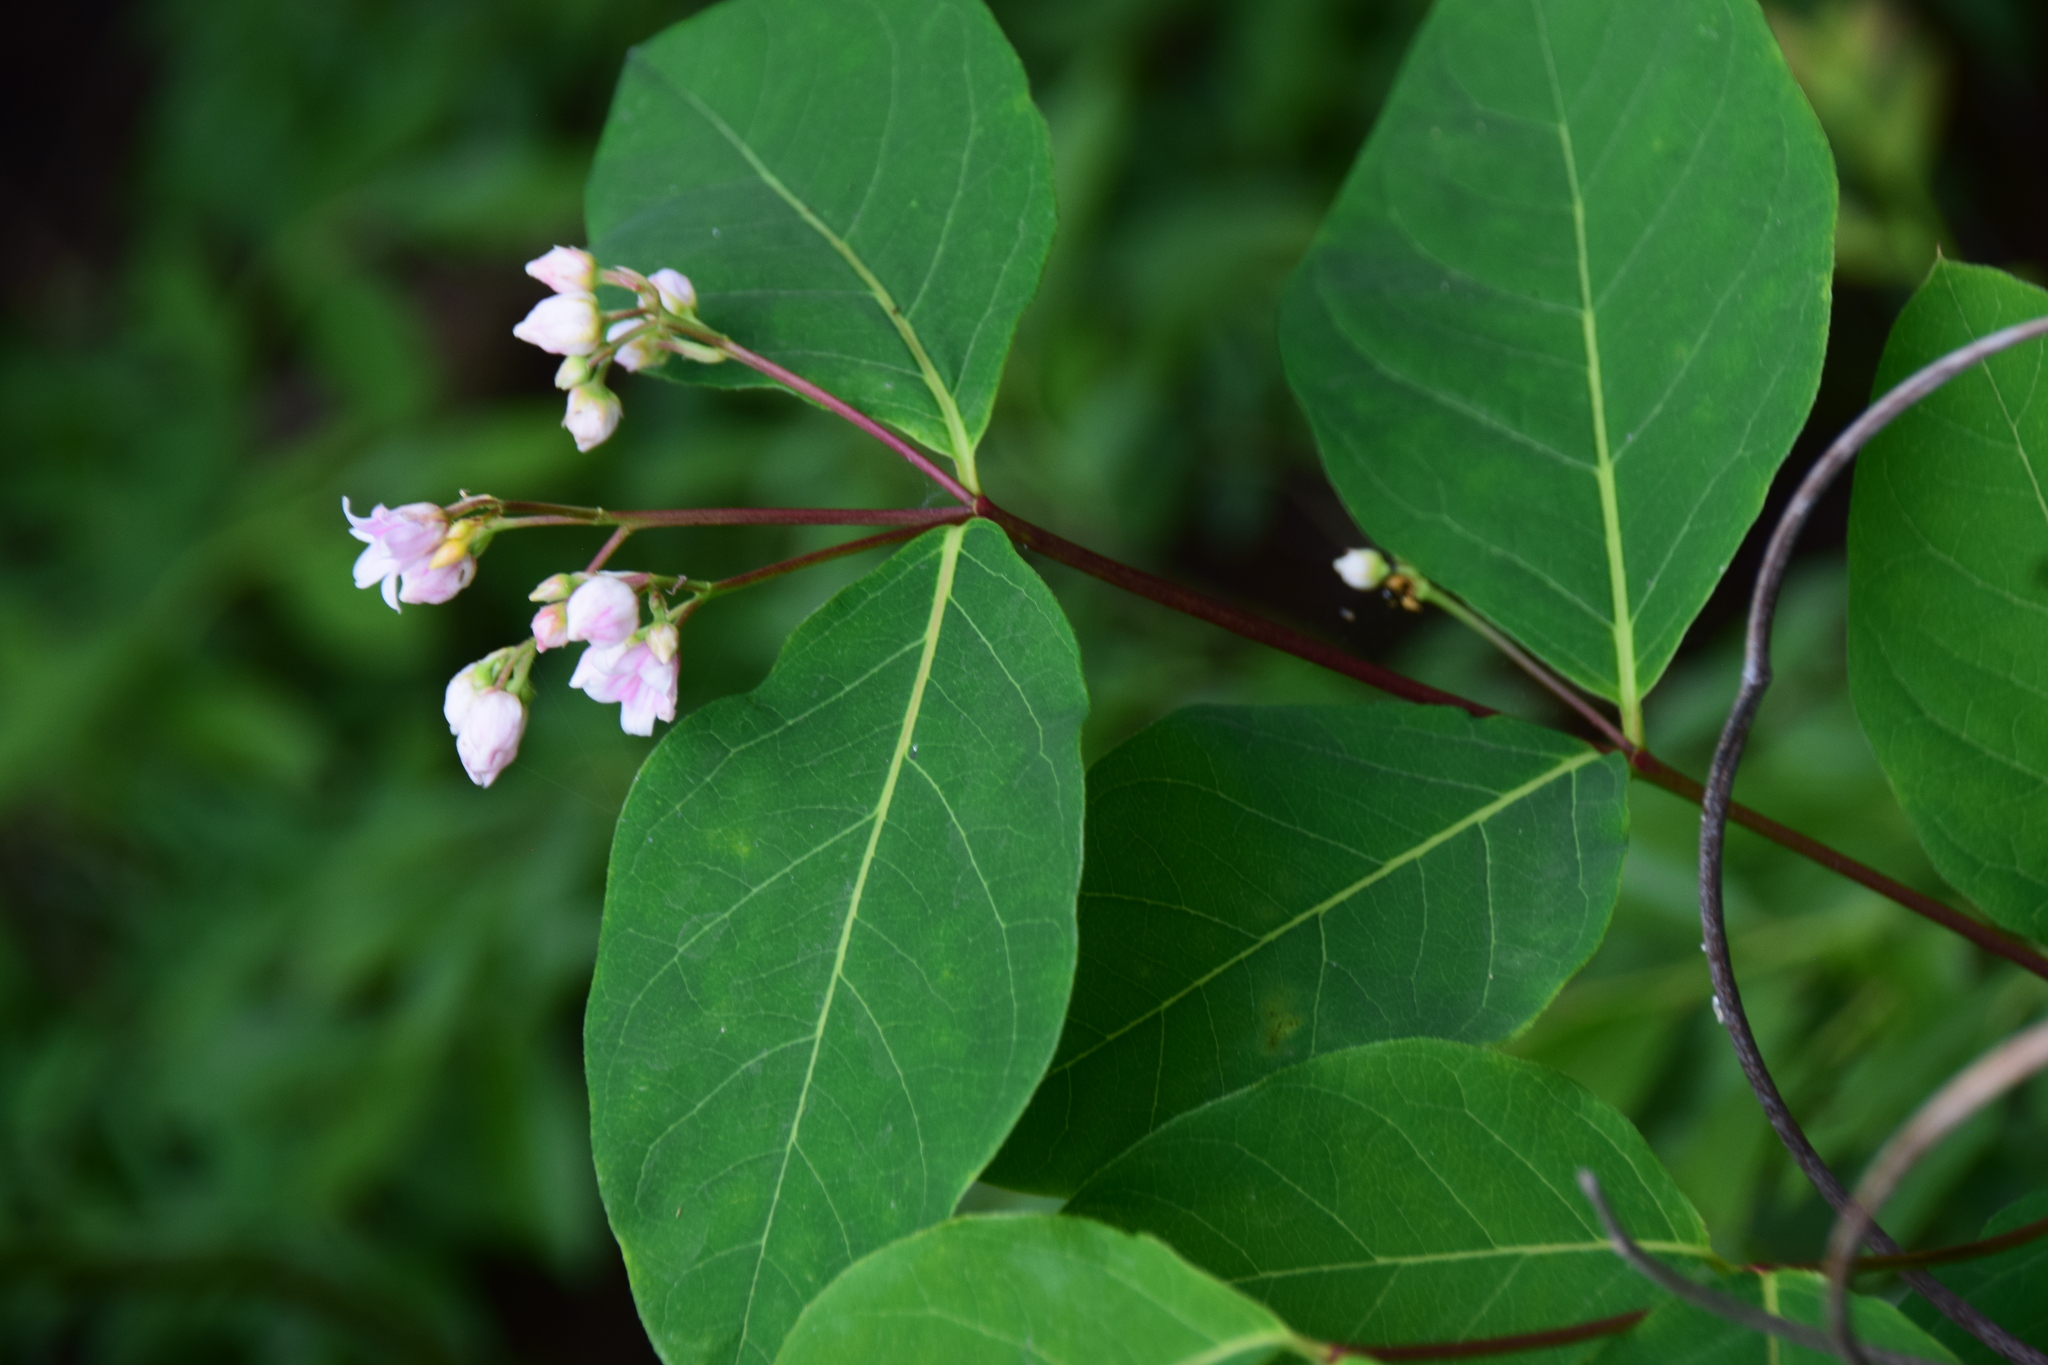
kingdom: Plantae
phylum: Tracheophyta
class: Magnoliopsida
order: Gentianales
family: Apocynaceae
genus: Apocynum
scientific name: Apocynum androsaemifolium
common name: Spreading dogbane
